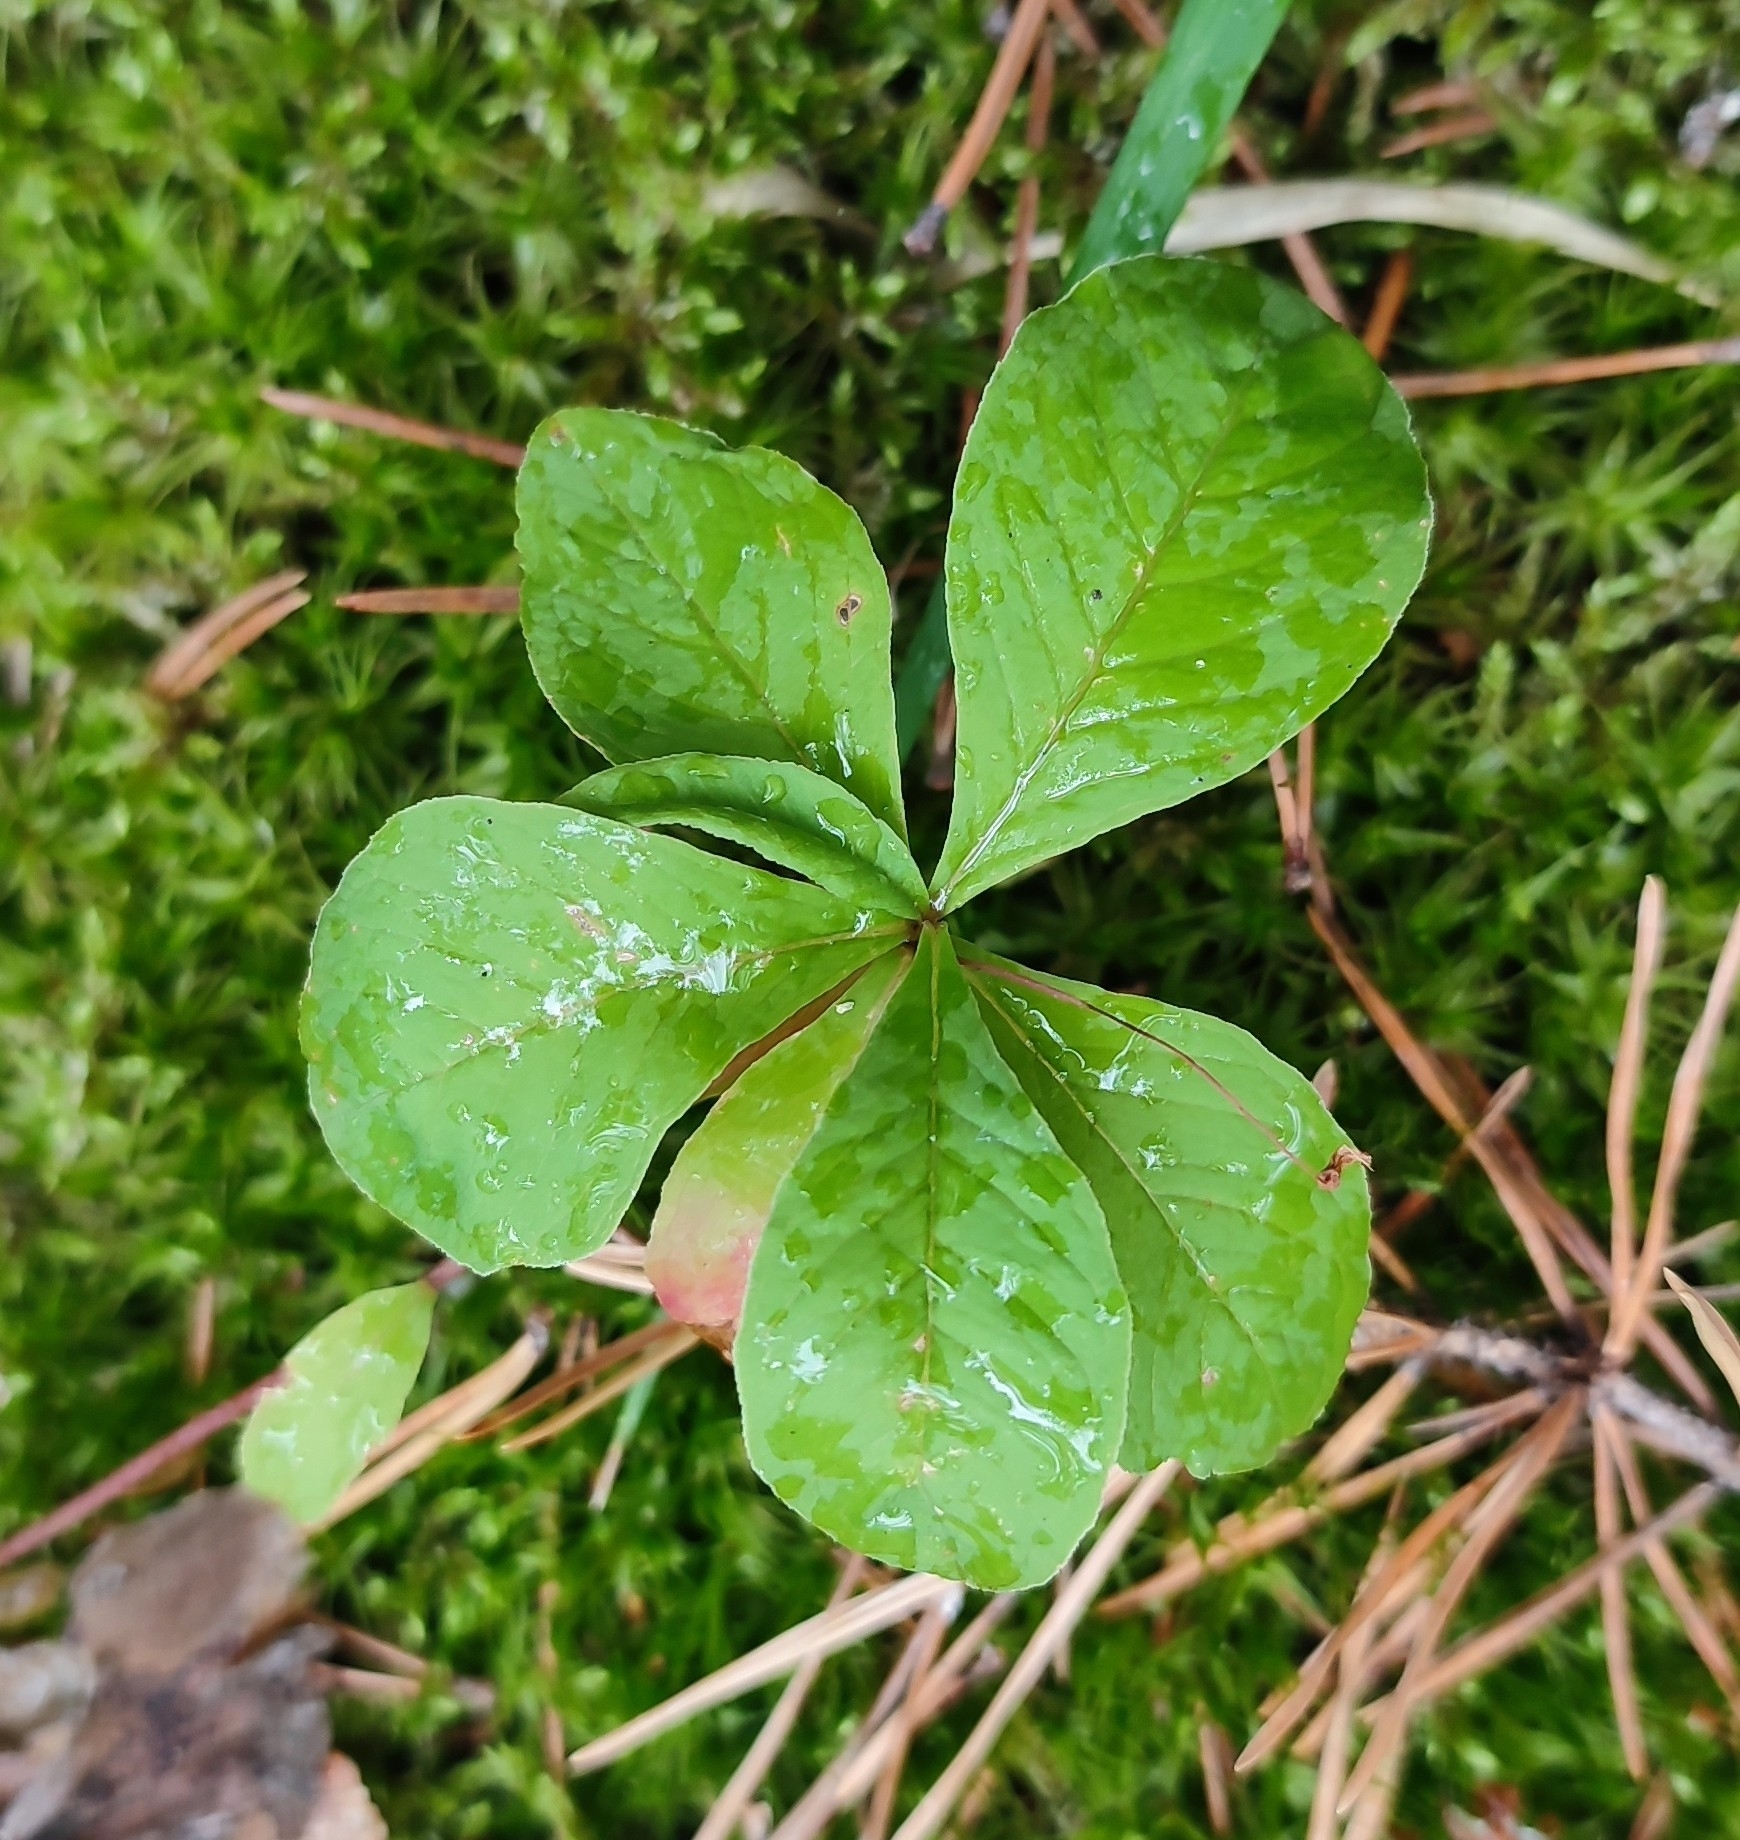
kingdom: Plantae
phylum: Tracheophyta
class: Magnoliopsida
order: Ericales
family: Primulaceae
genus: Lysimachia
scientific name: Lysimachia europaea
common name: Arctic starflower
